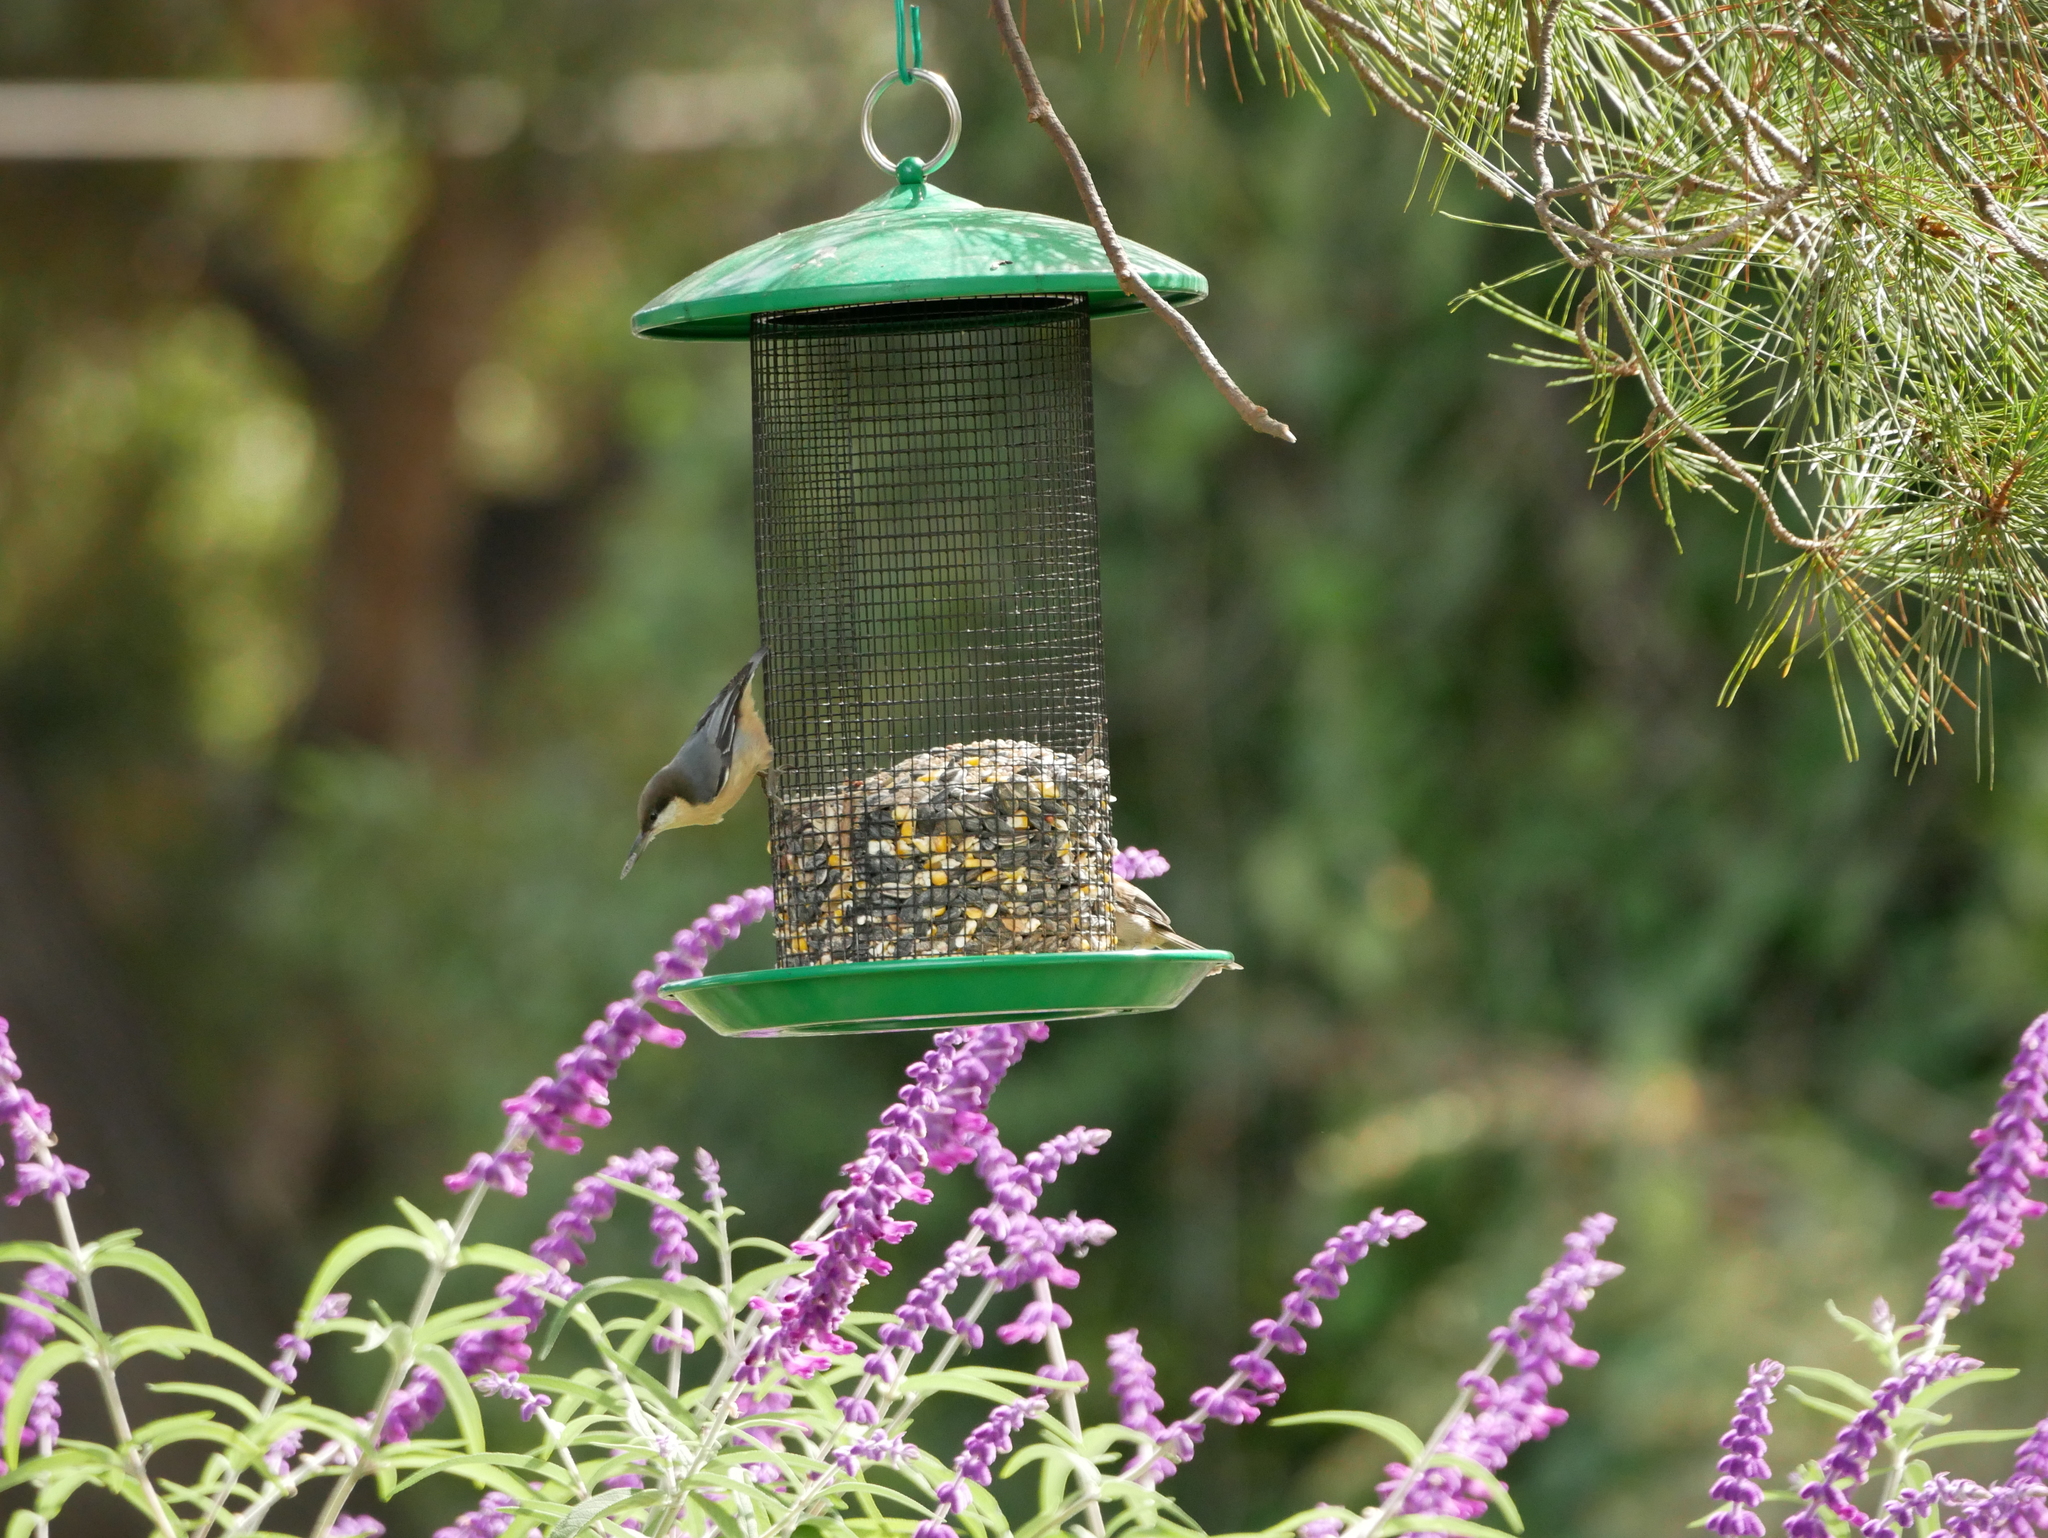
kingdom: Animalia
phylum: Chordata
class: Aves
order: Passeriformes
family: Sittidae
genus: Sitta
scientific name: Sitta pygmaea
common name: Pygmy nuthatch
